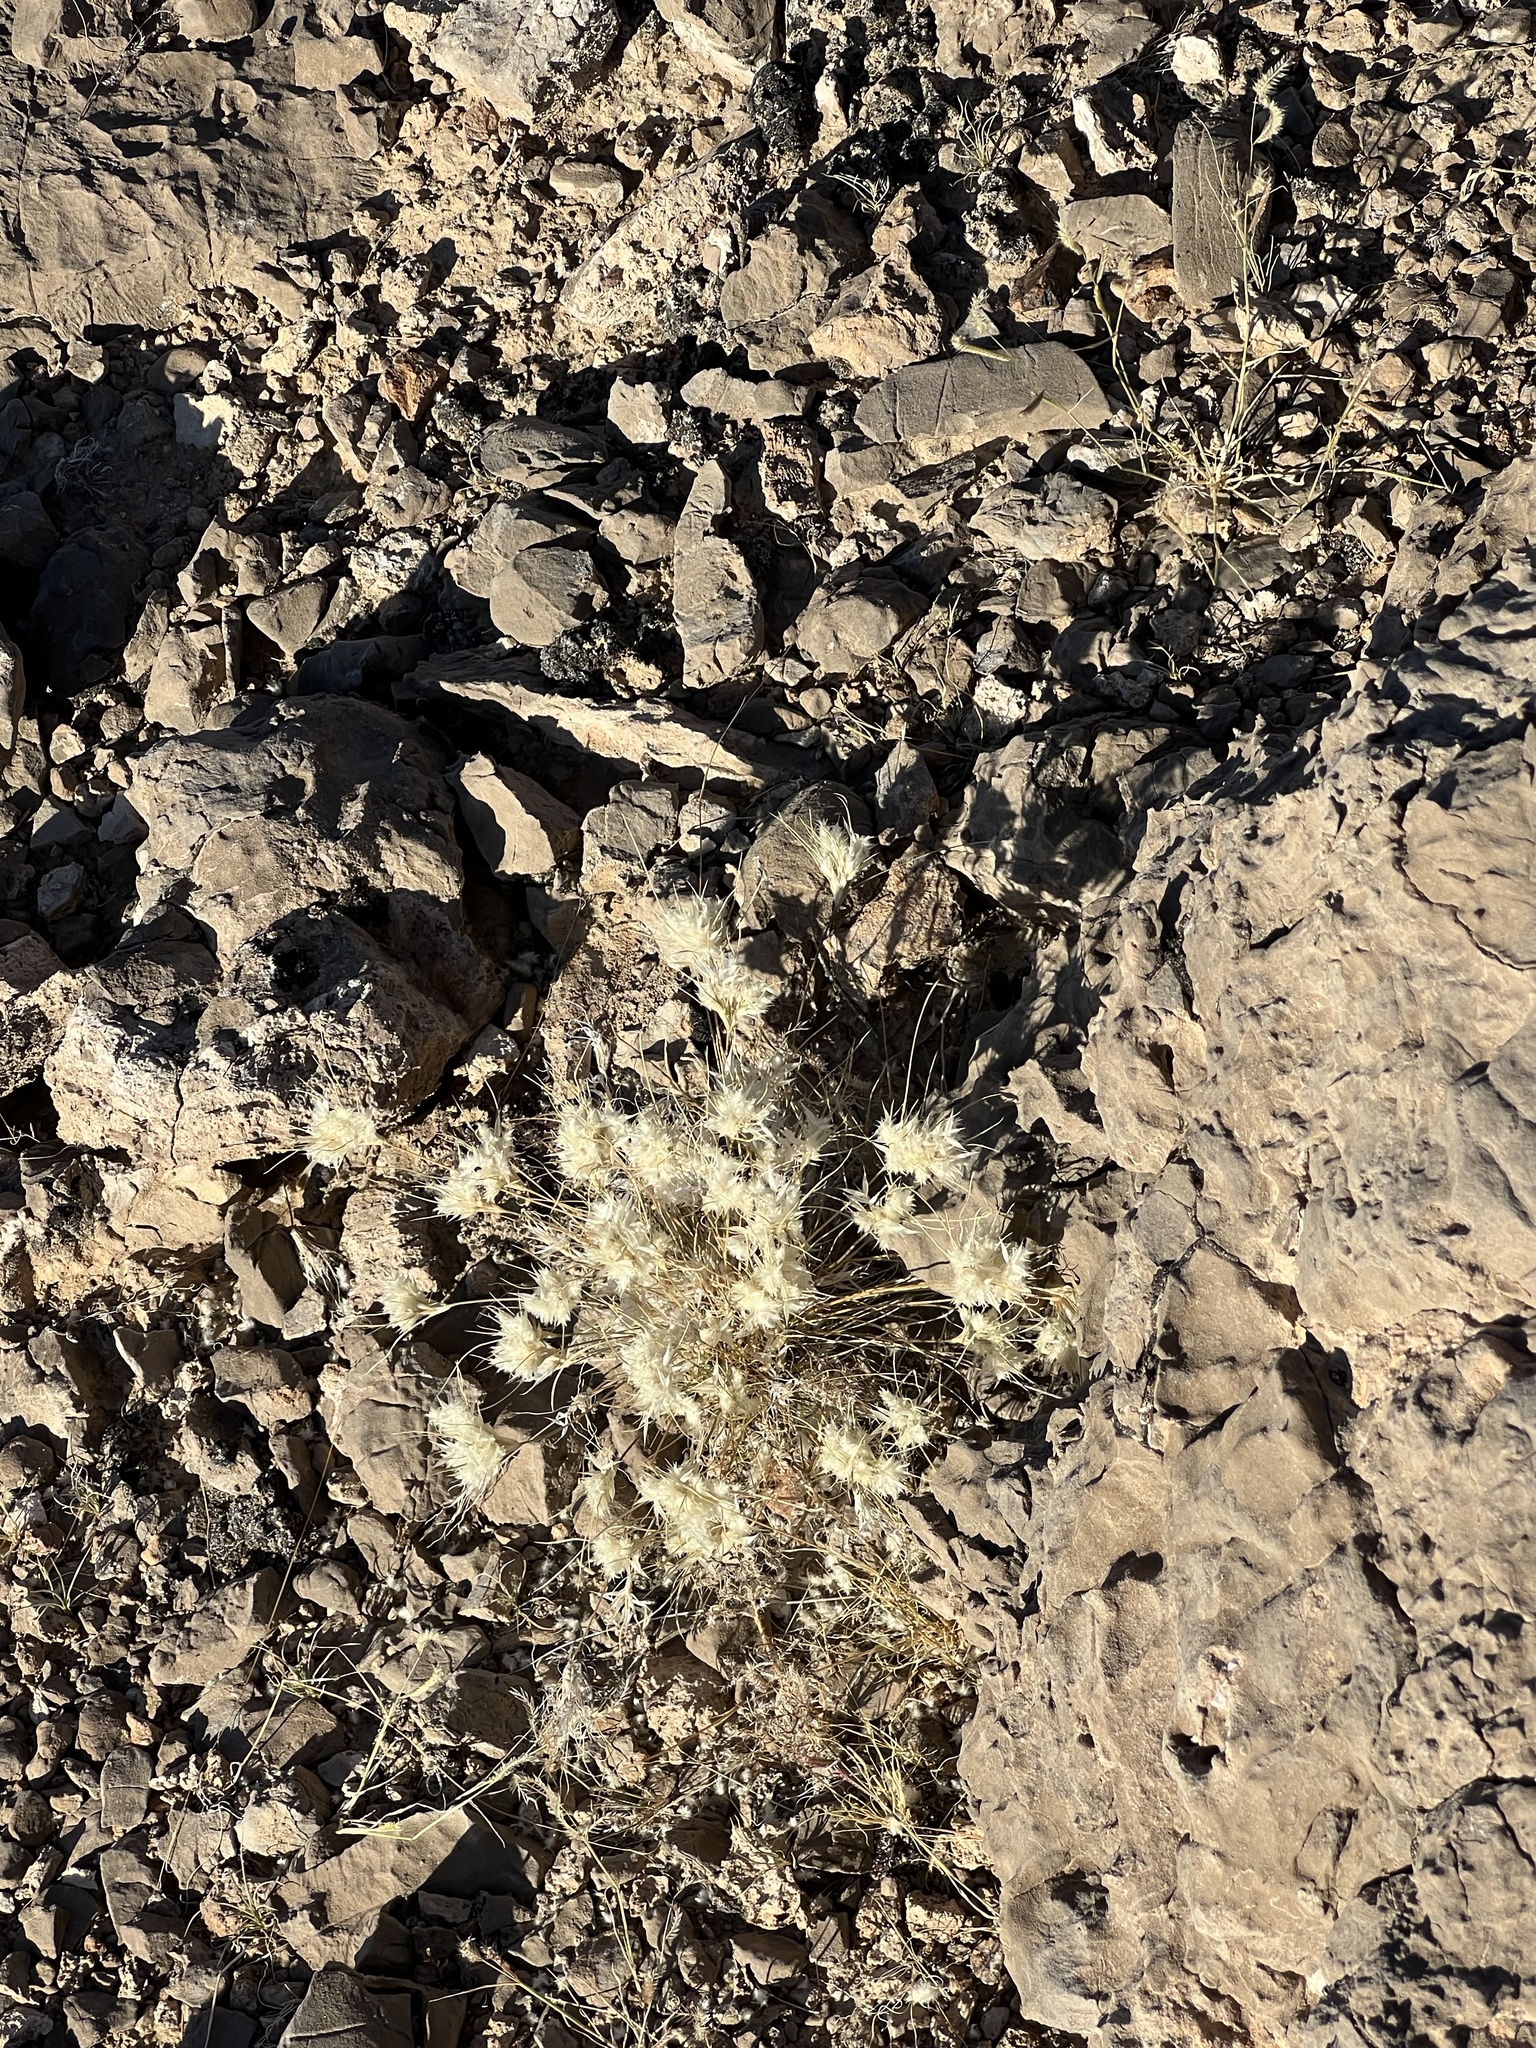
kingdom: Plantae
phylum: Tracheophyta
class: Liliopsida
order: Poales
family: Poaceae
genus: Dasyochloa
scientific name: Dasyochloa pulchella
